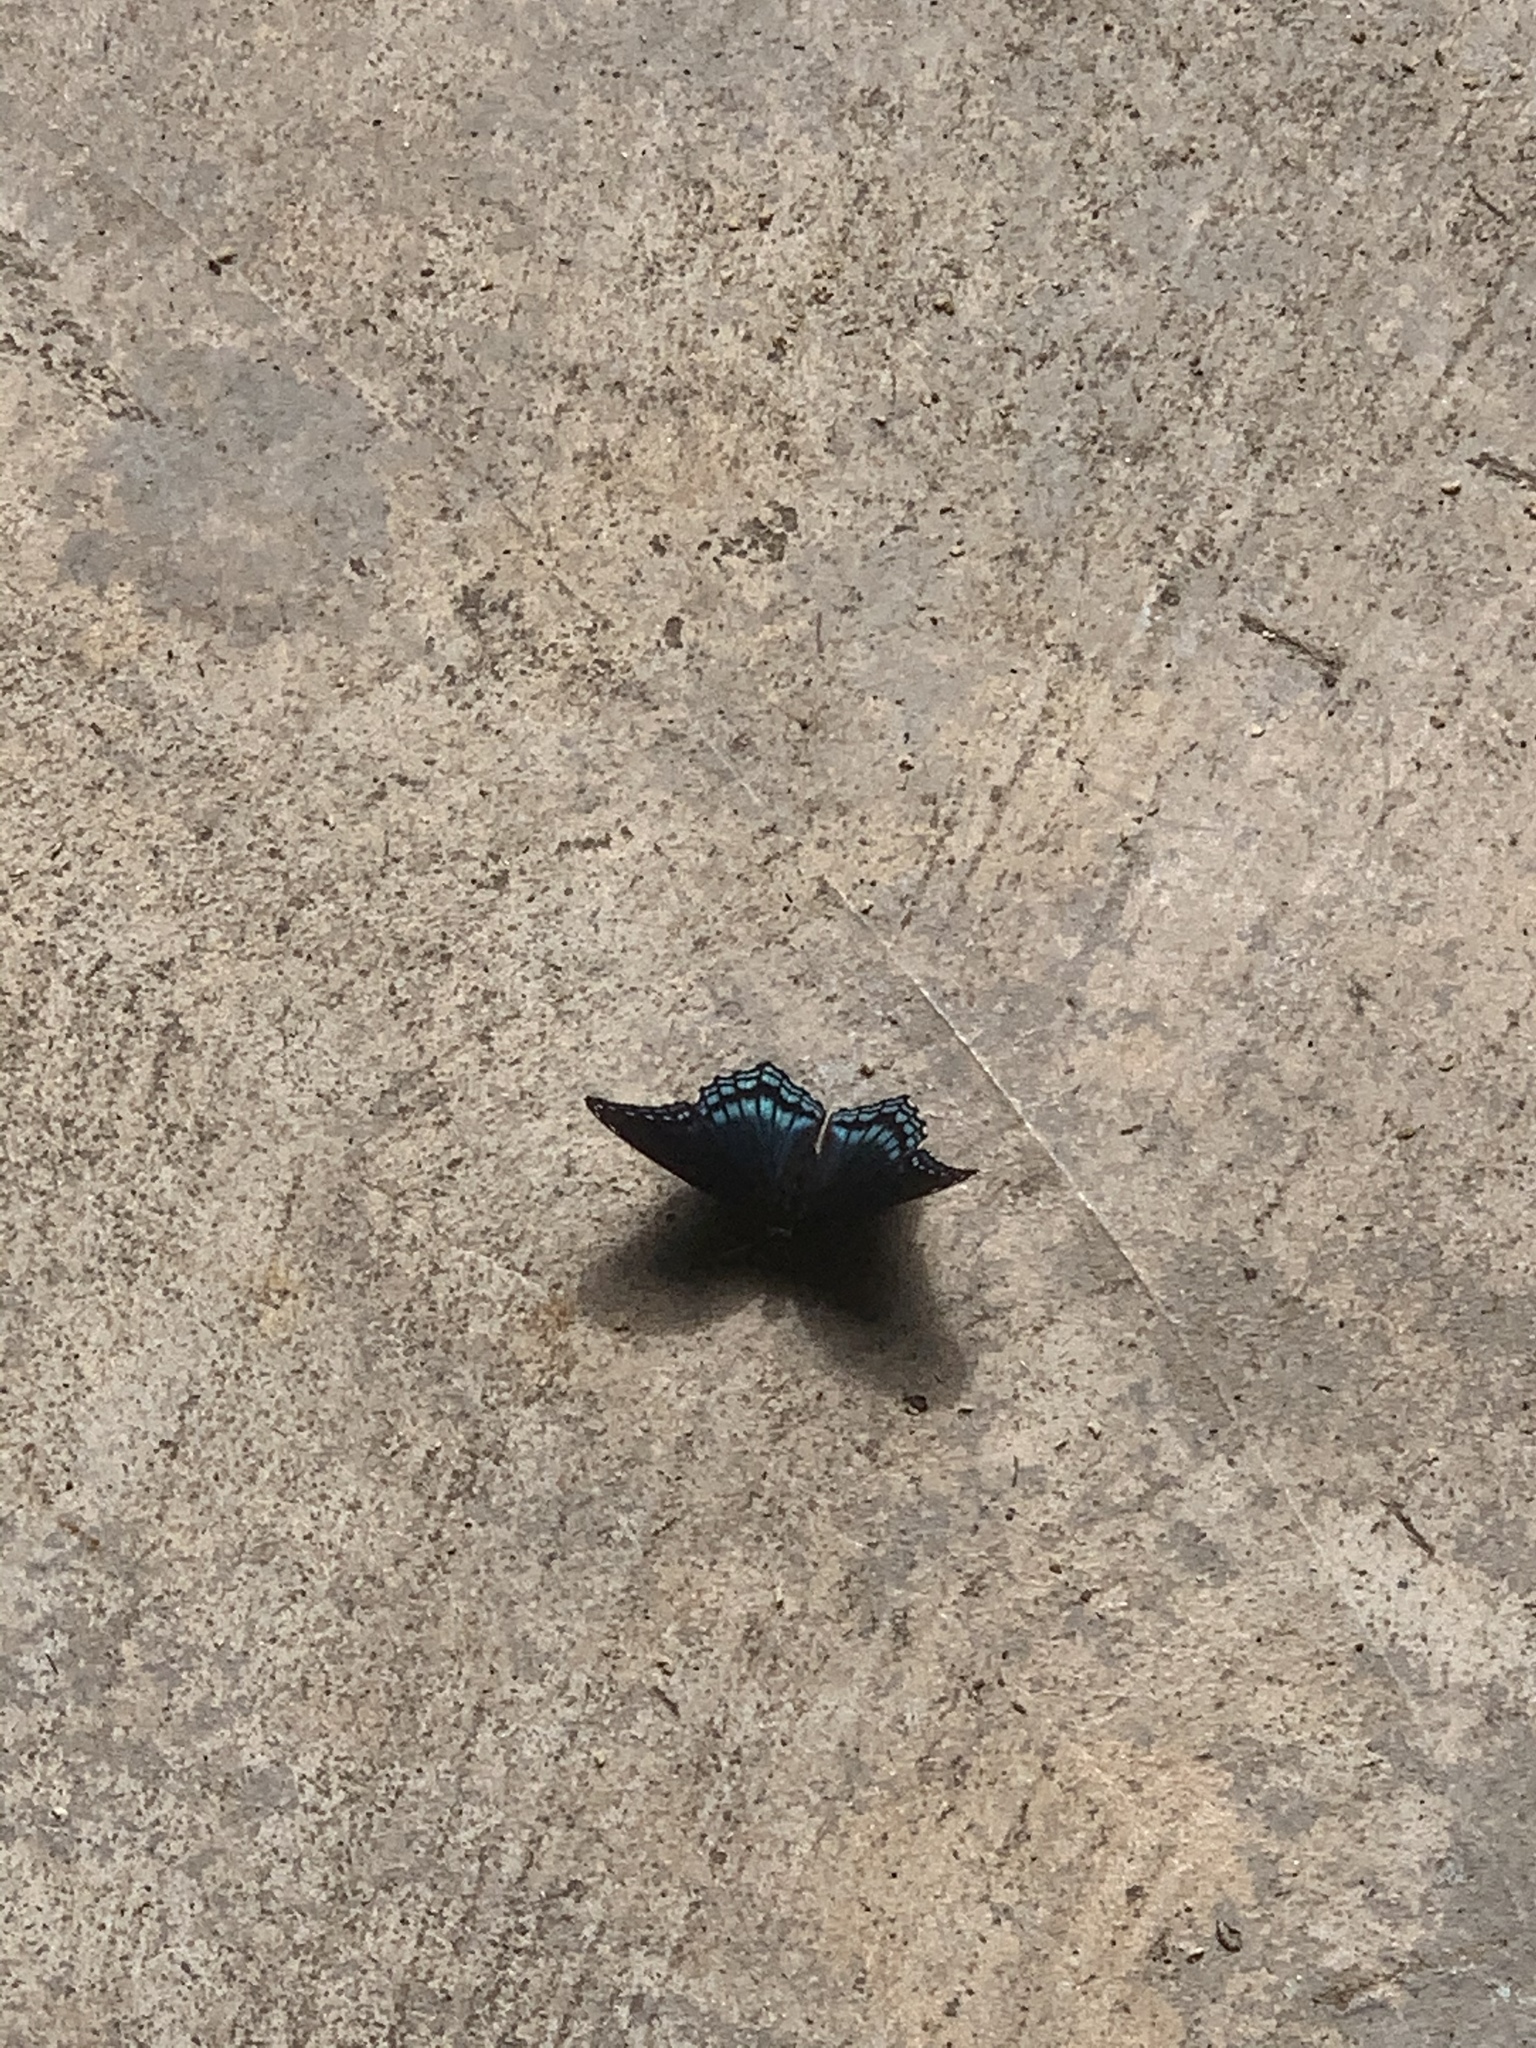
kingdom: Animalia
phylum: Arthropoda
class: Insecta
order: Lepidoptera
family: Nymphalidae
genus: Limenitis
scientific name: Limenitis arthemis
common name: Red-spotted admiral
